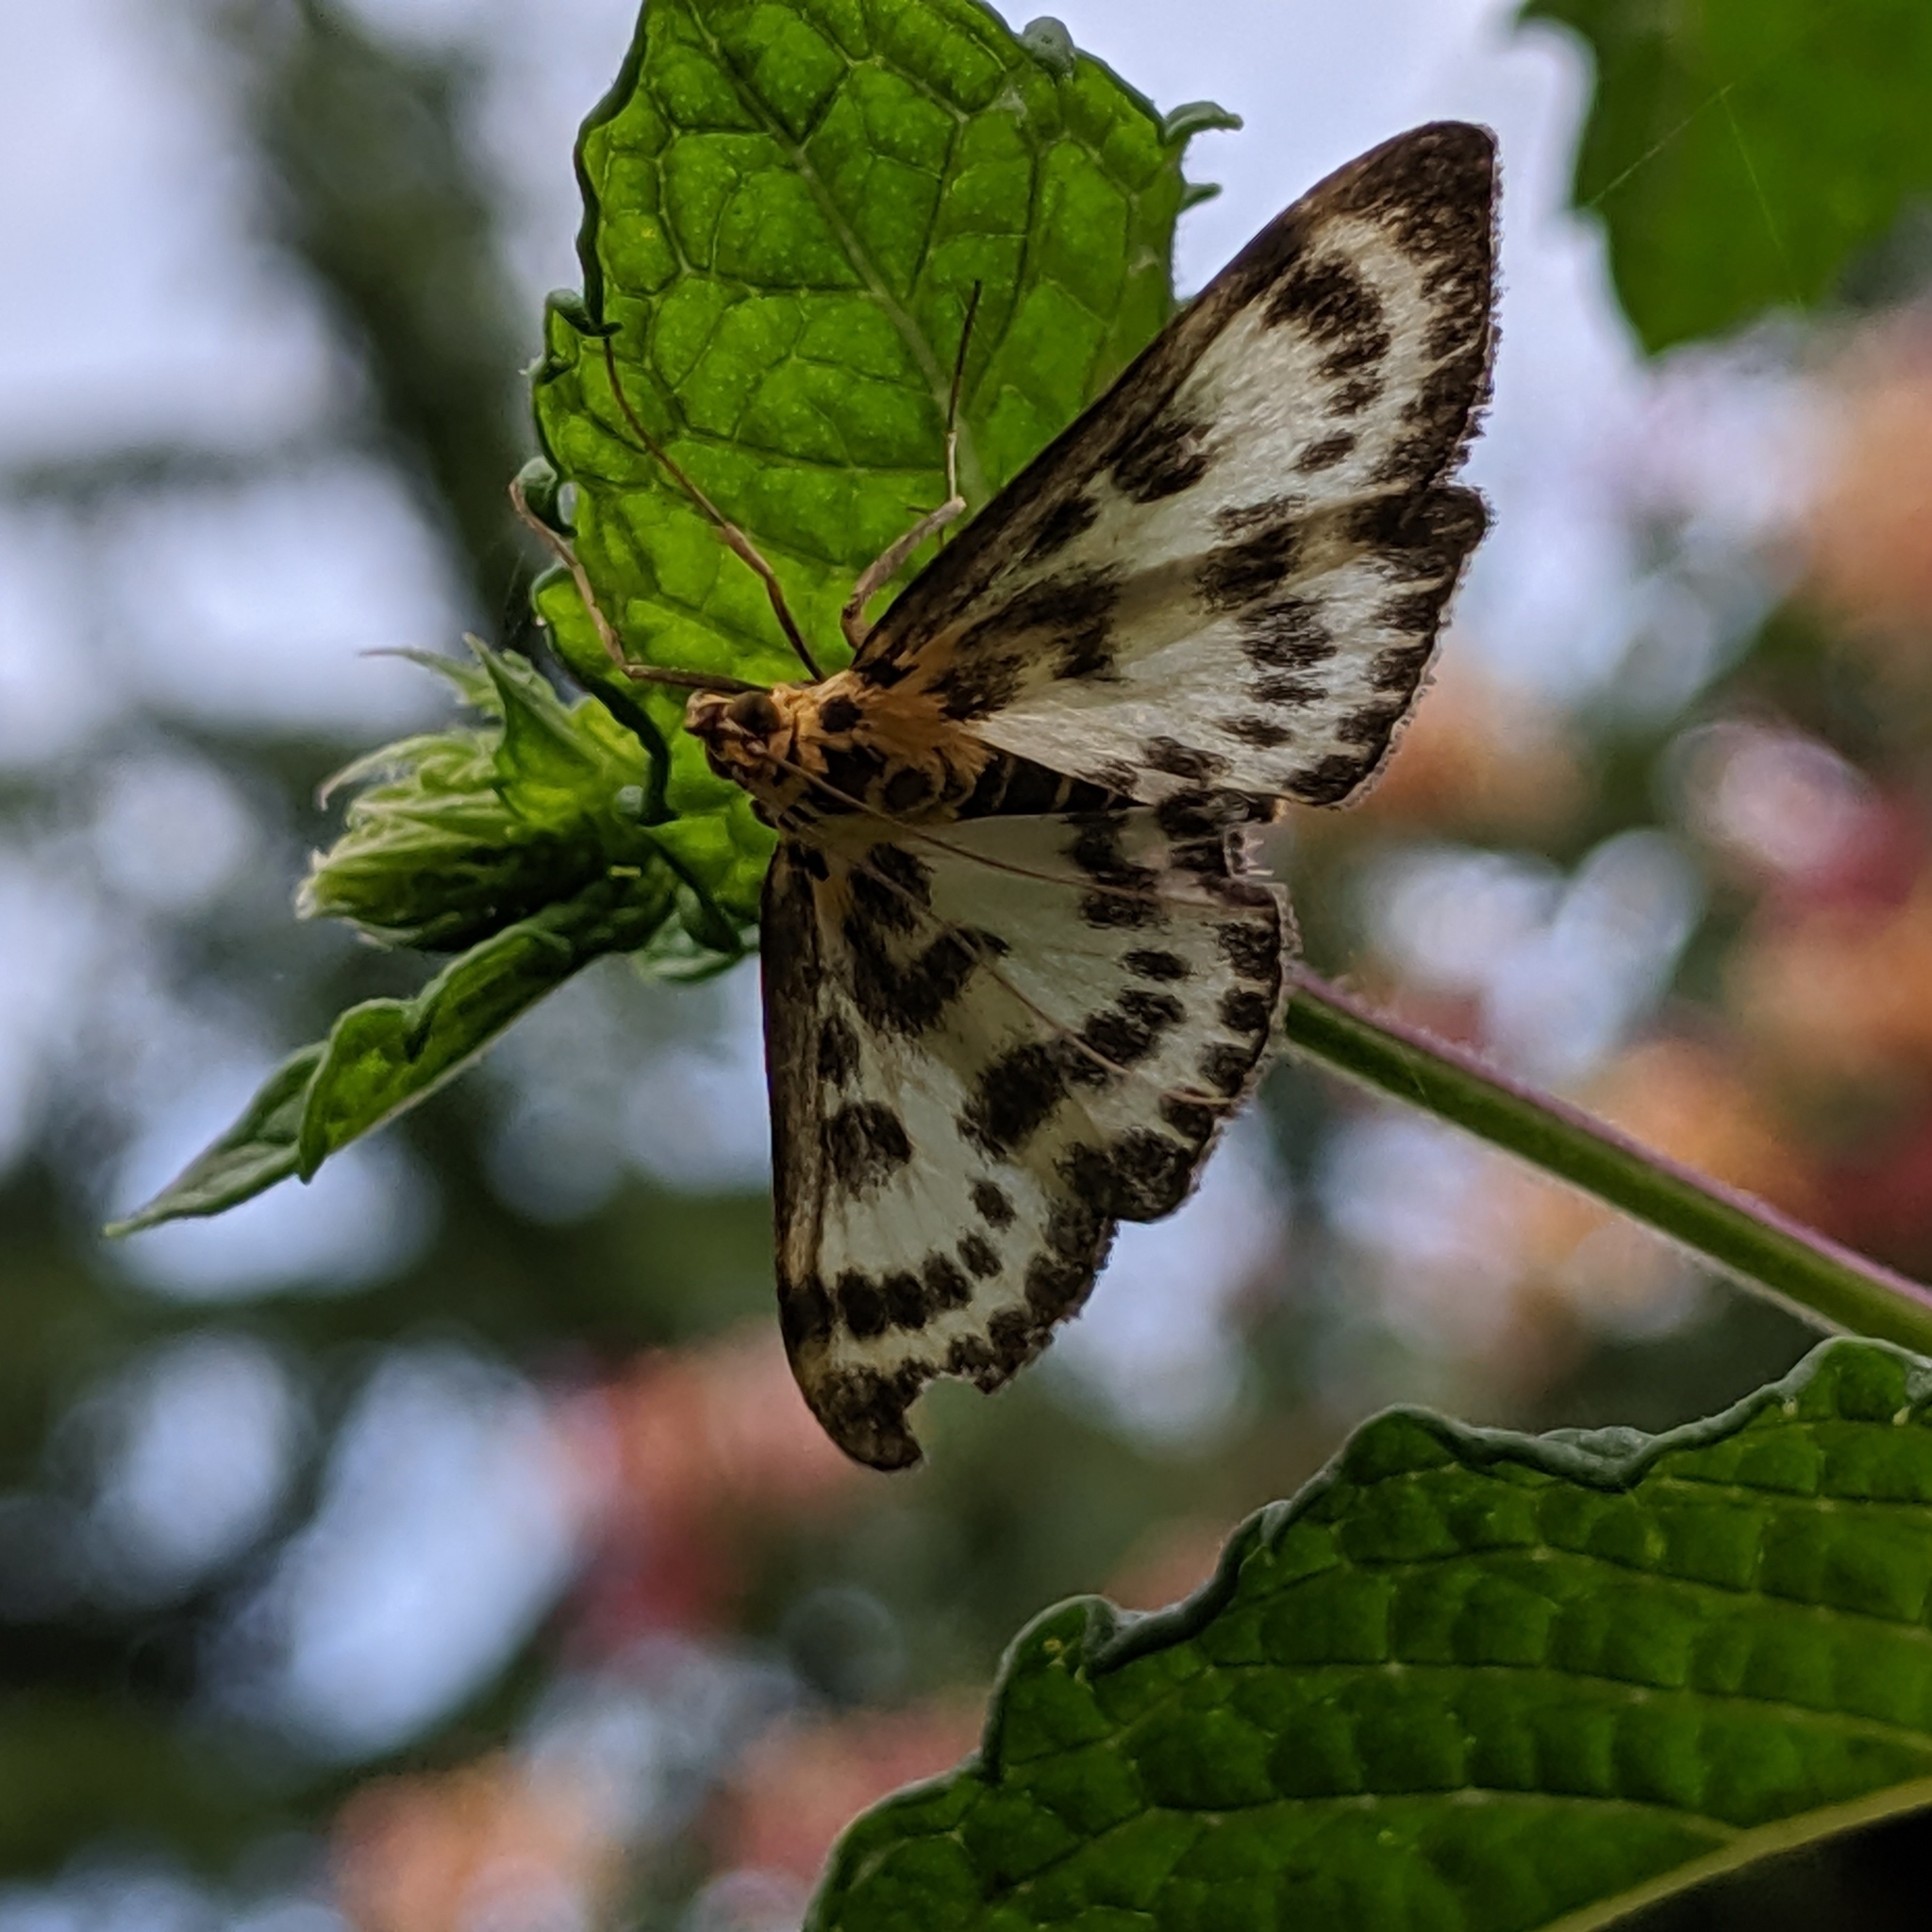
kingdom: Animalia
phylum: Arthropoda
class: Insecta
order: Lepidoptera
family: Crambidae
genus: Anania
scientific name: Anania hortulata
